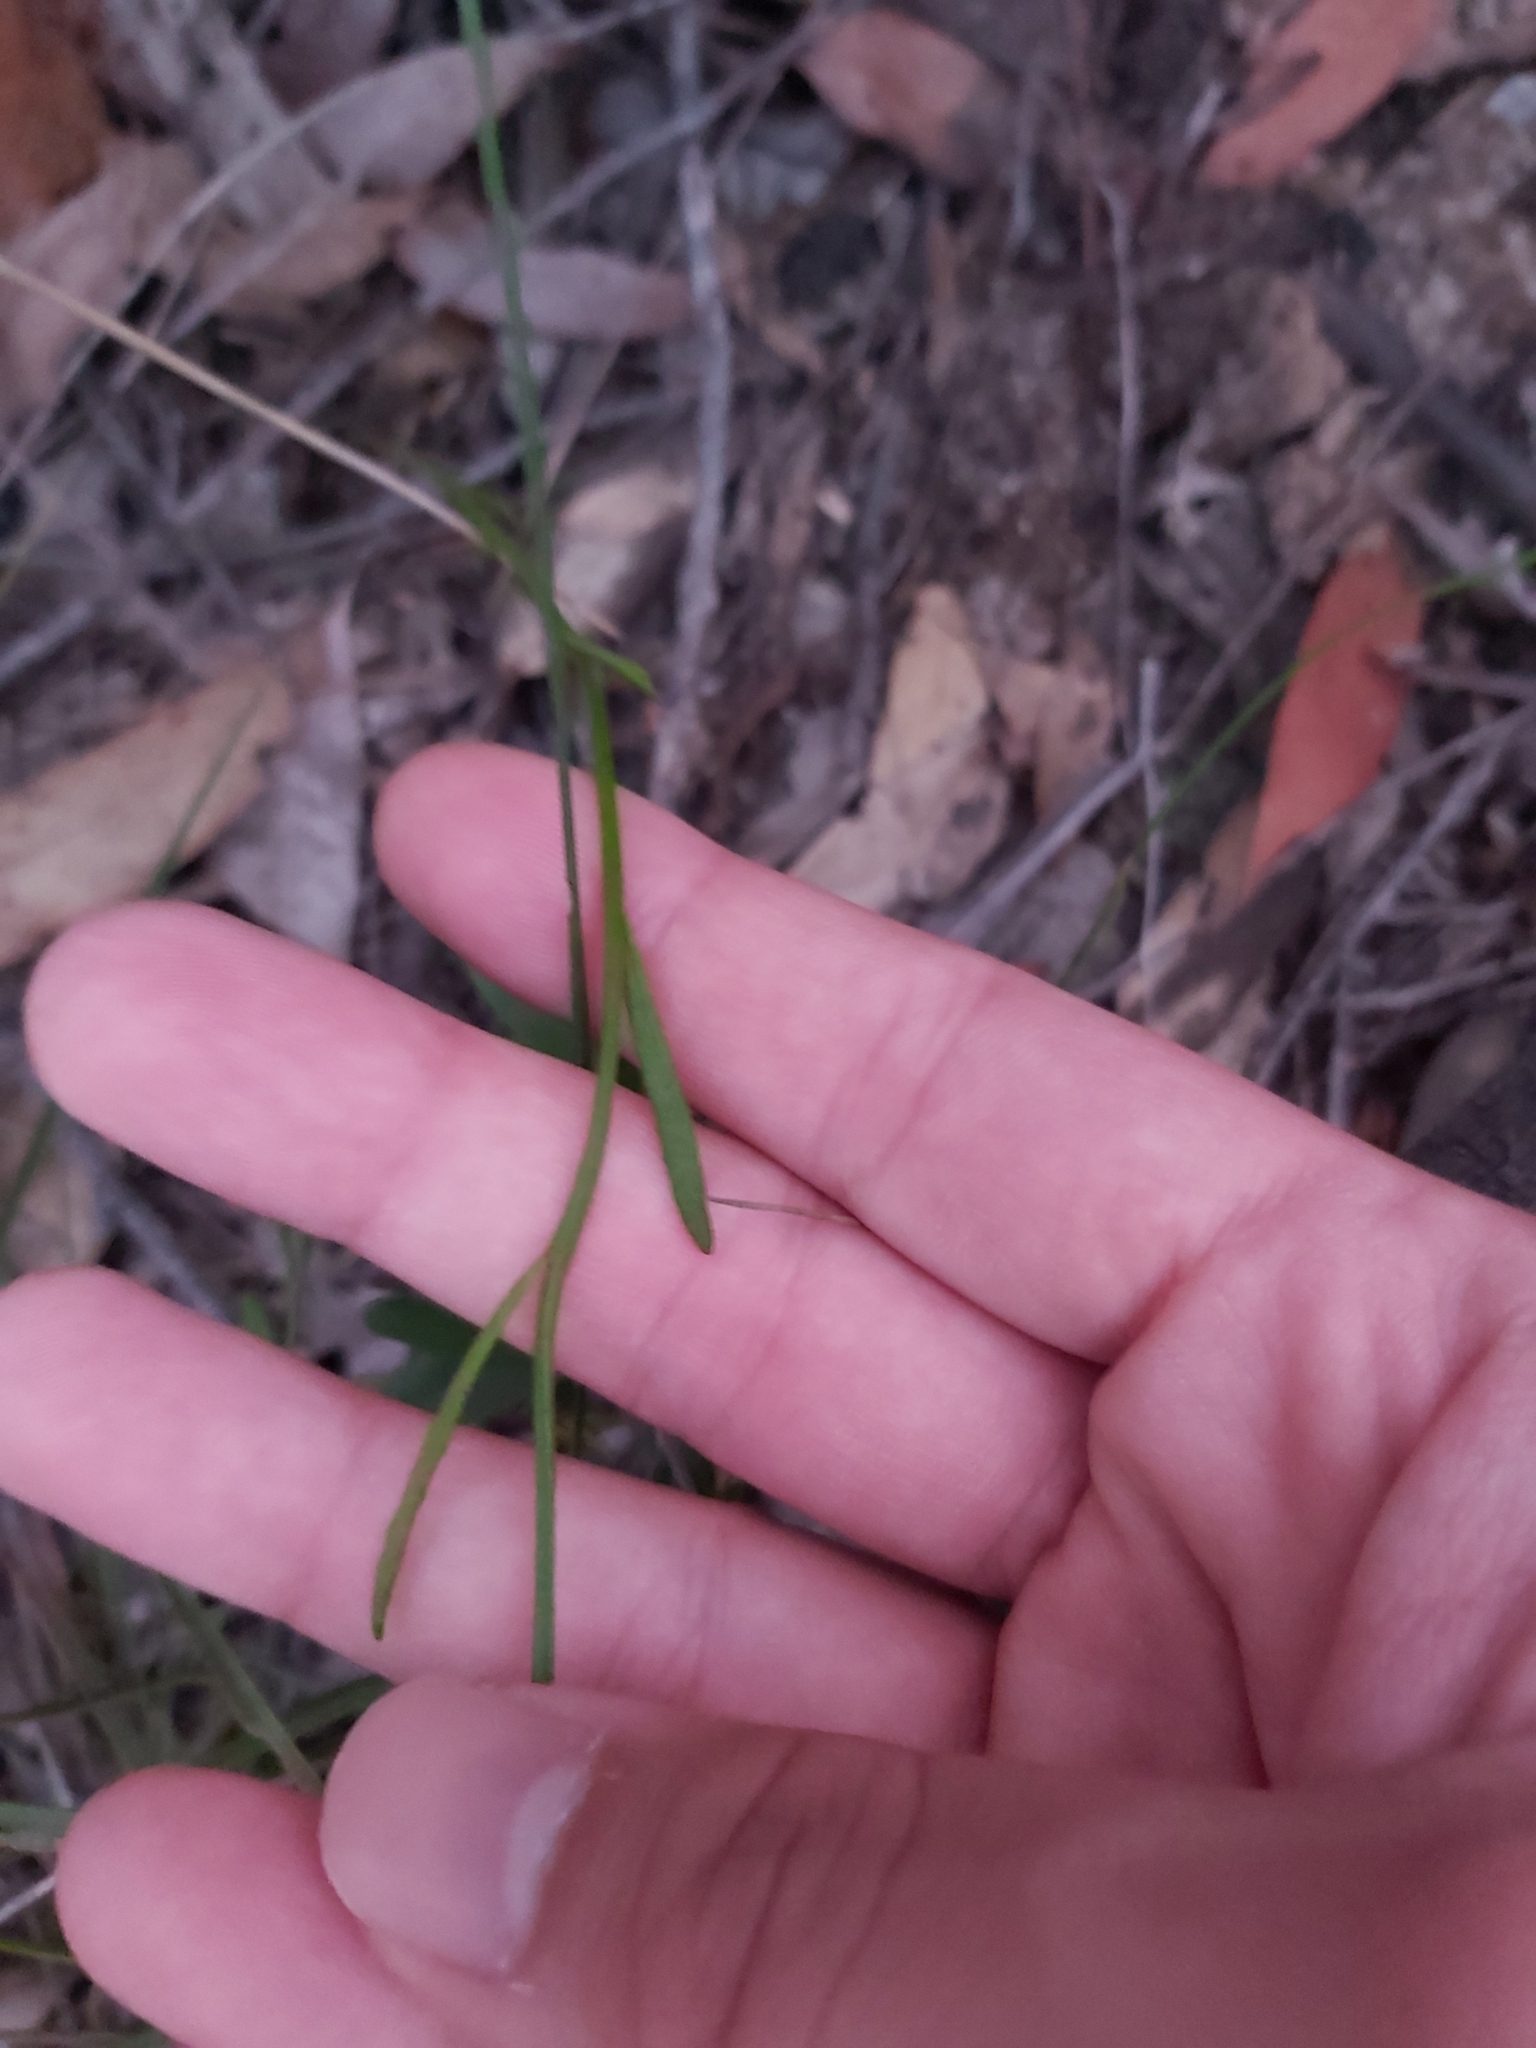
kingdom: Plantae
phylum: Tracheophyta
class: Magnoliopsida
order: Asterales
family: Goodeniaceae
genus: Dampiera
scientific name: Dampiera stricta
